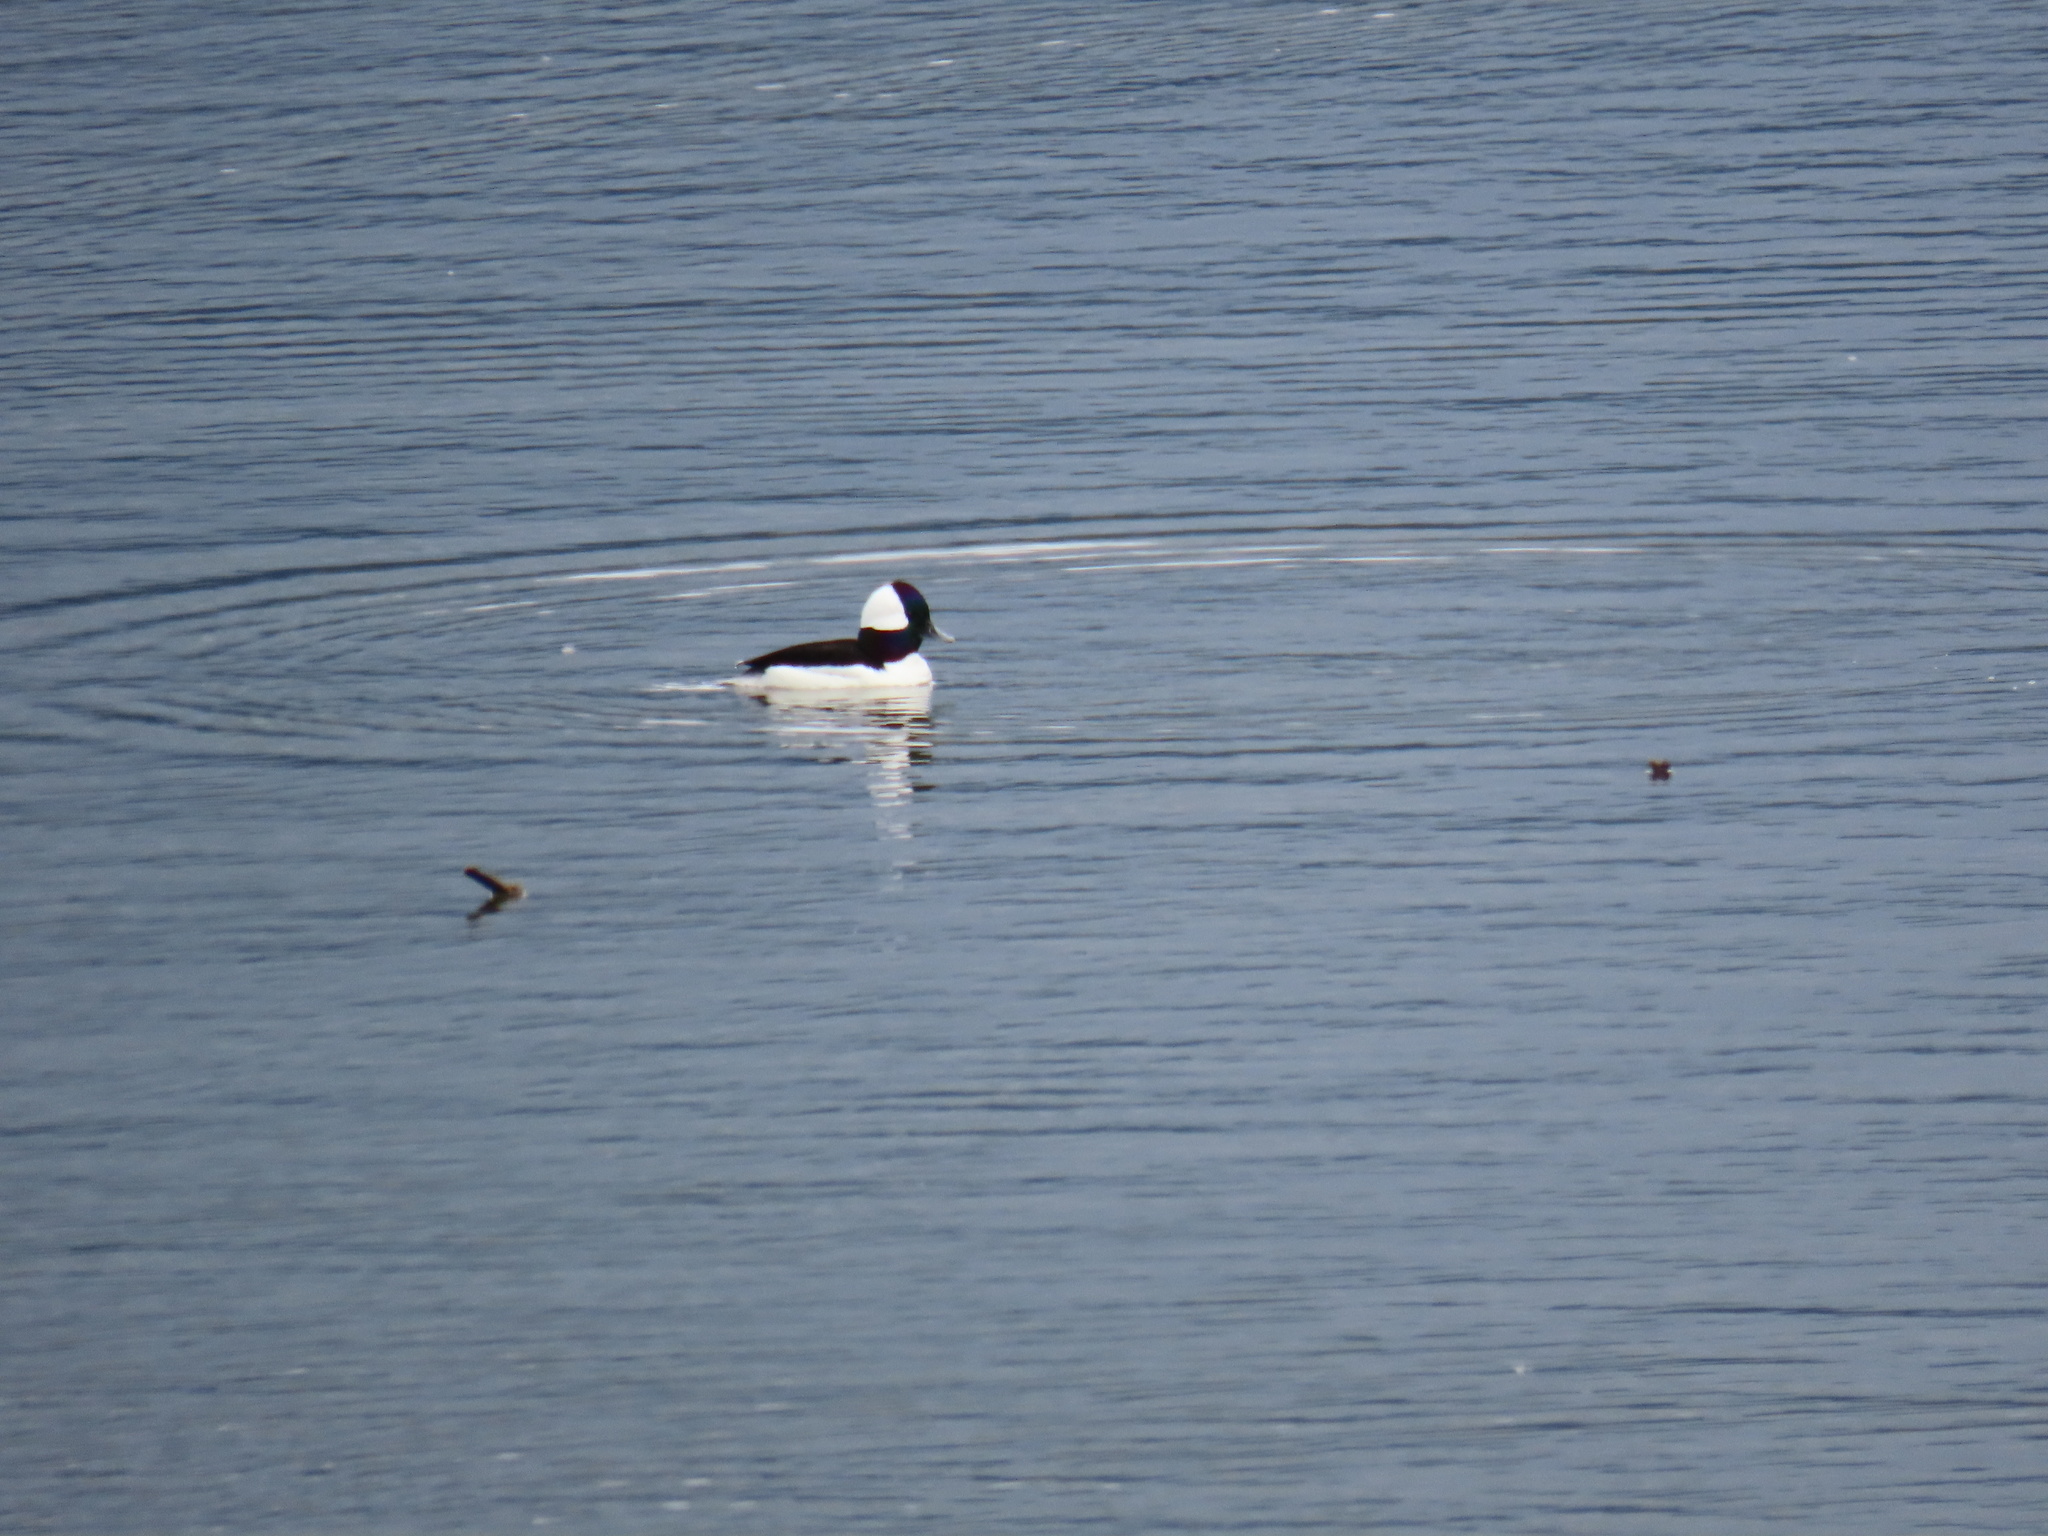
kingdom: Animalia
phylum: Chordata
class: Aves
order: Anseriformes
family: Anatidae
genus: Bucephala
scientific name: Bucephala albeola
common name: Bufflehead
